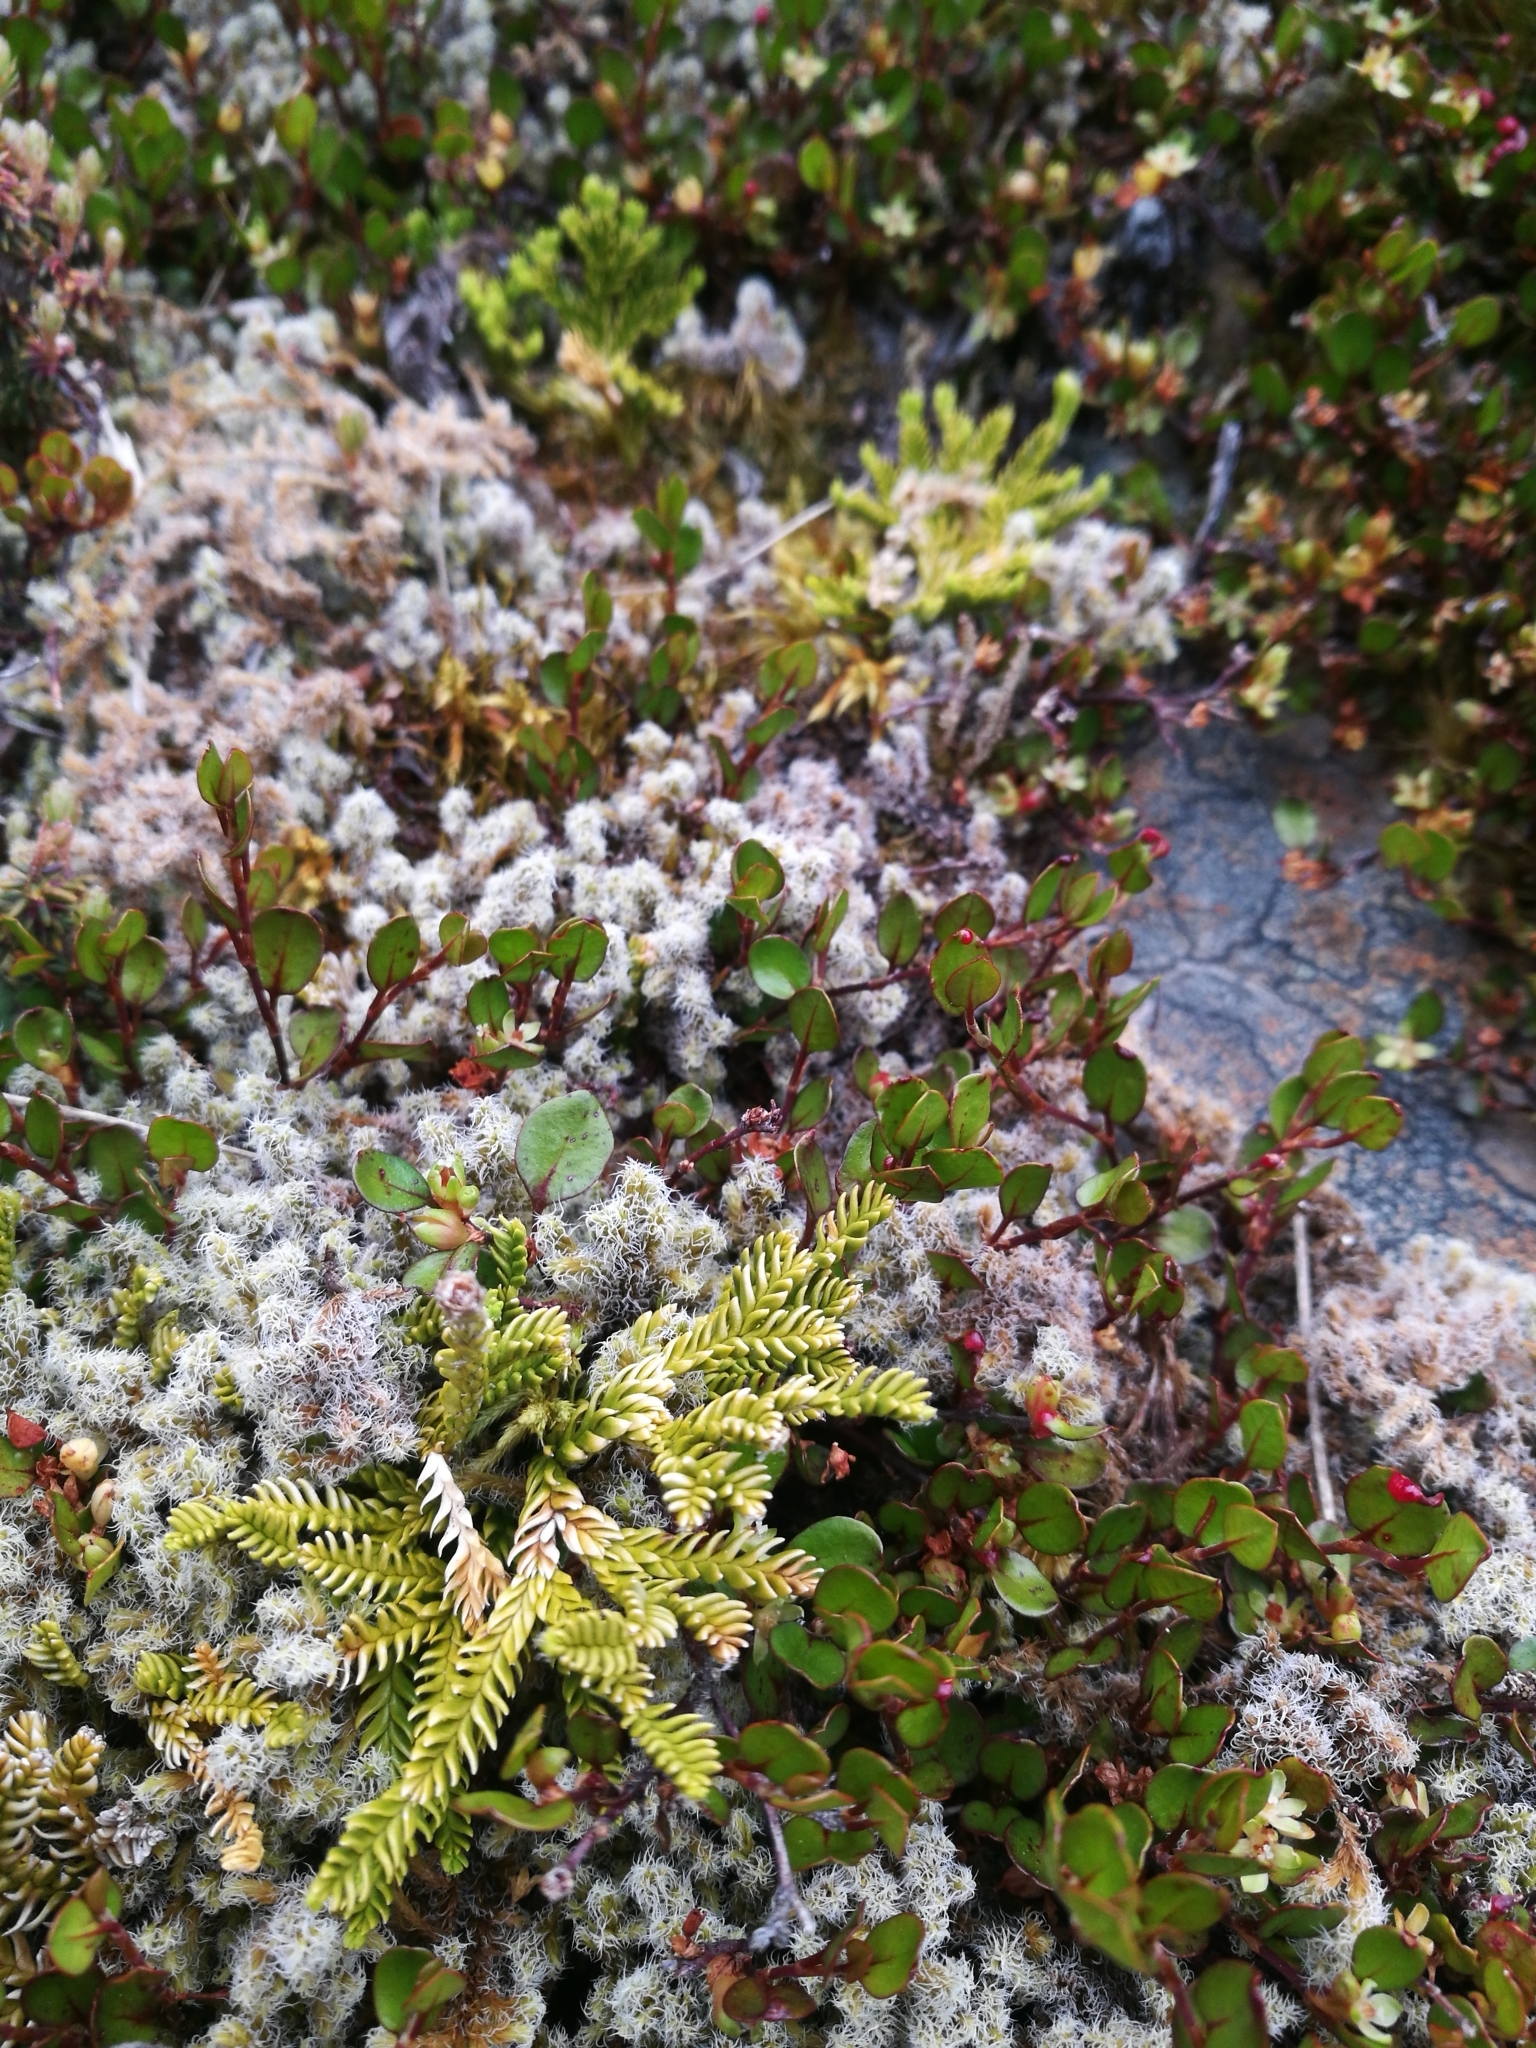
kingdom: Plantae
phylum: Tracheophyta
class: Lycopodiopsida
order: Lycopodiales
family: Lycopodiaceae
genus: Diphasium
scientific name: Diphasium scariosum
